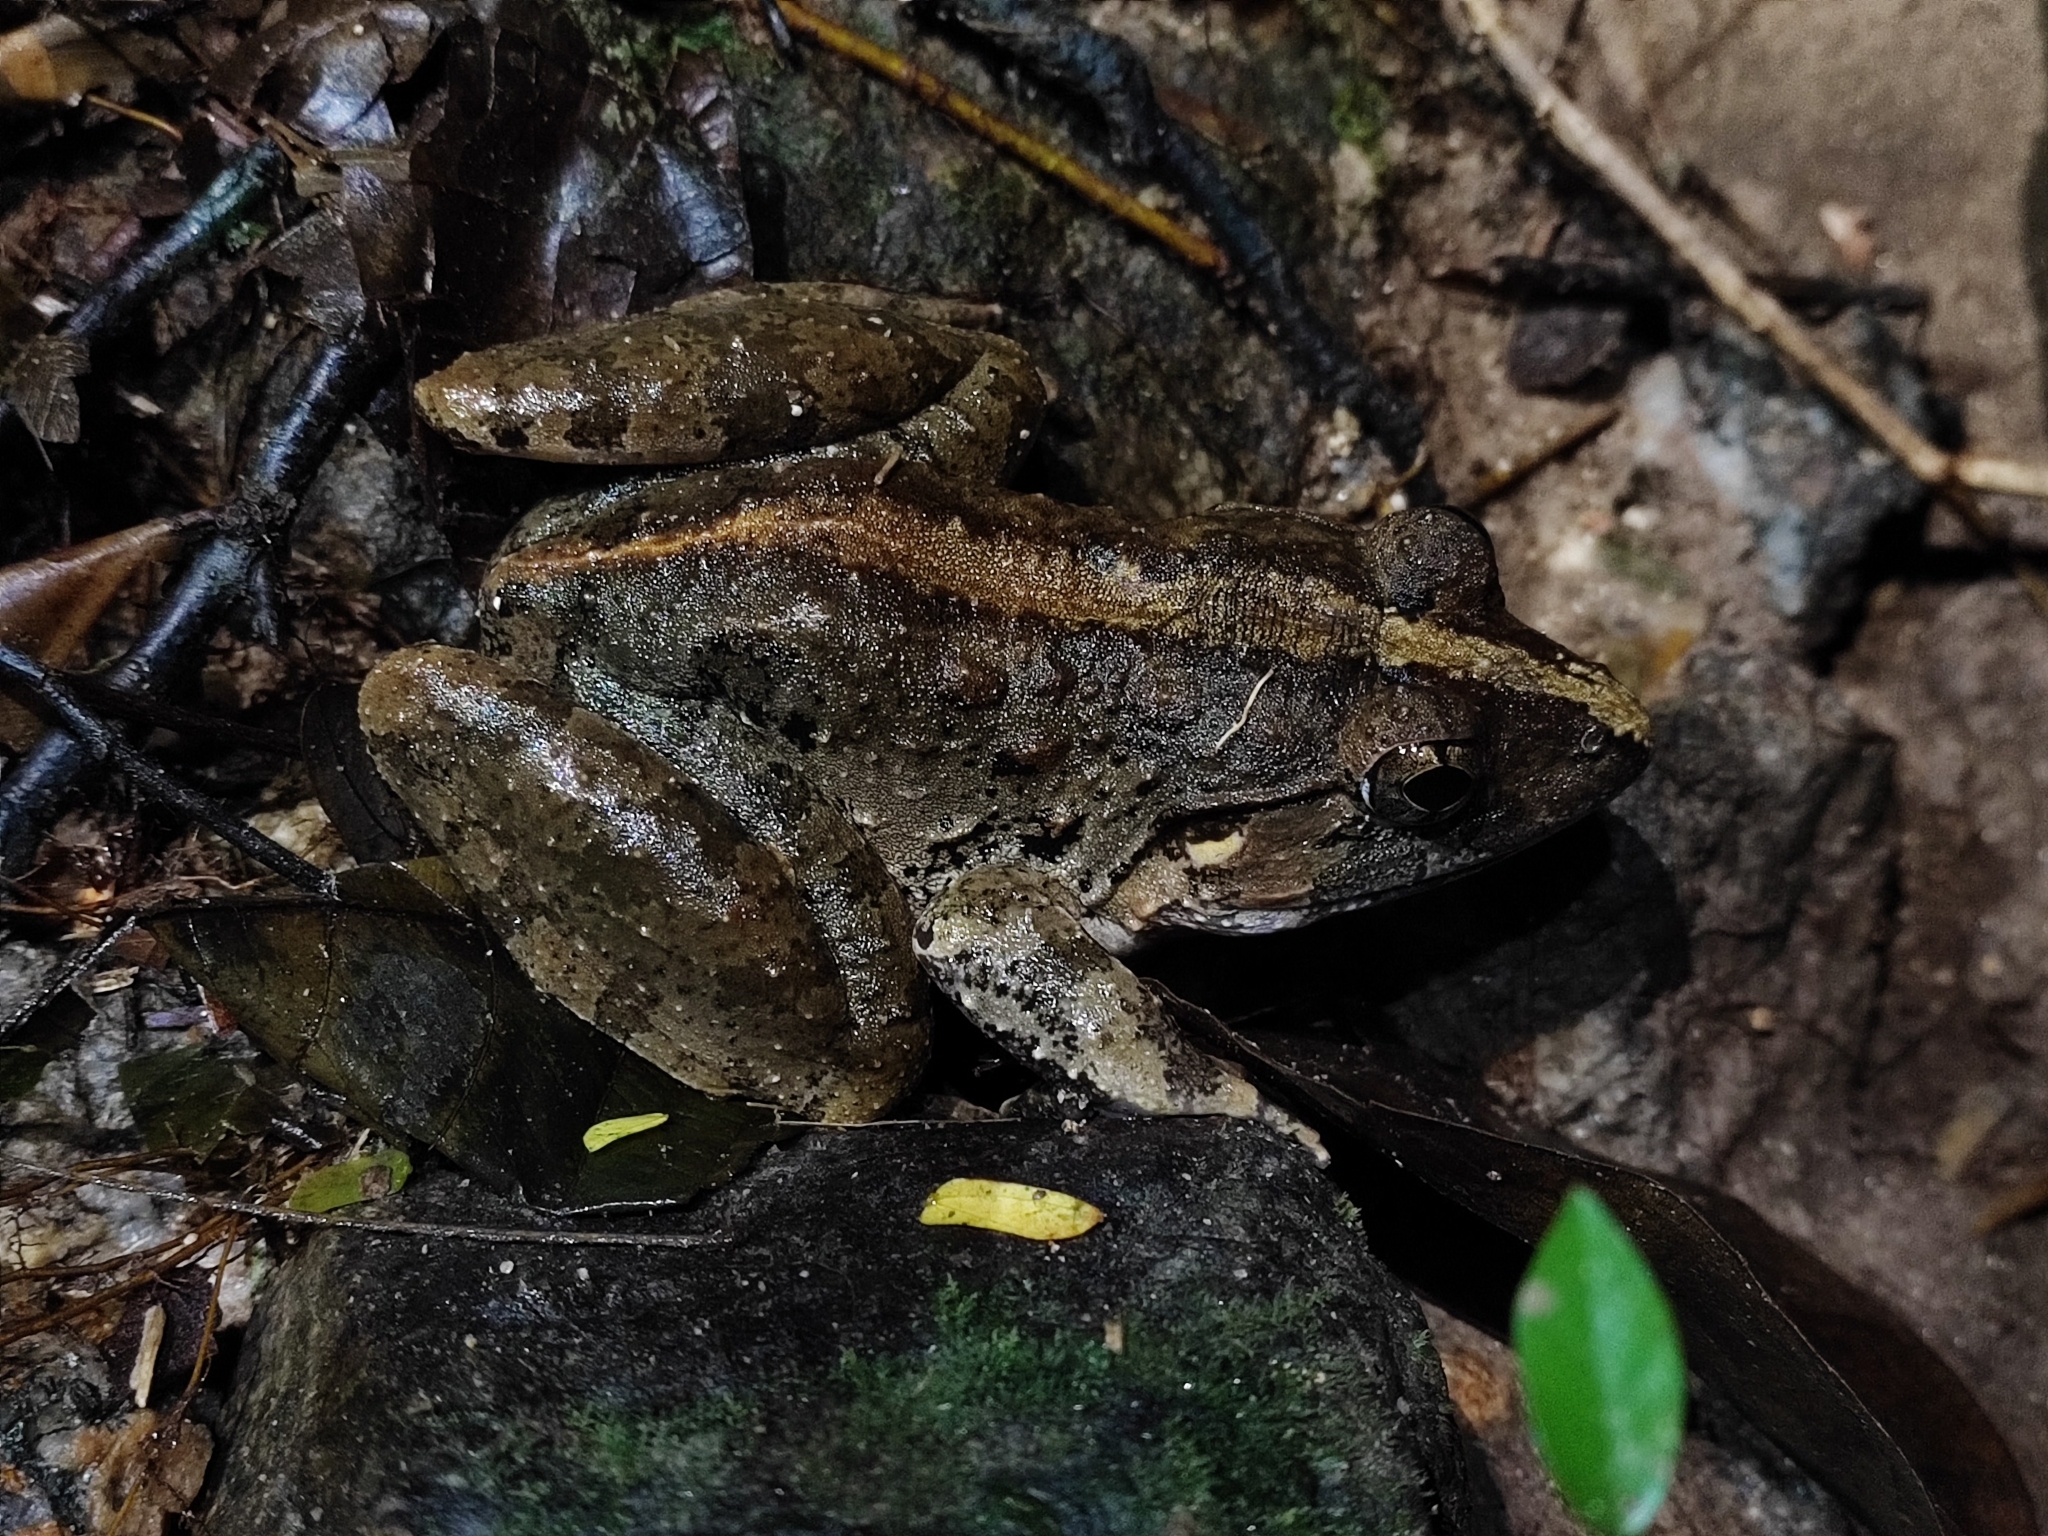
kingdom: Animalia
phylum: Chordata
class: Amphibia
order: Anura
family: Dicroglossidae
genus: Limnonectes
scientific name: Limnonectes blythii
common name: Blyth’s river frog/giant asian river frog/giant frog
